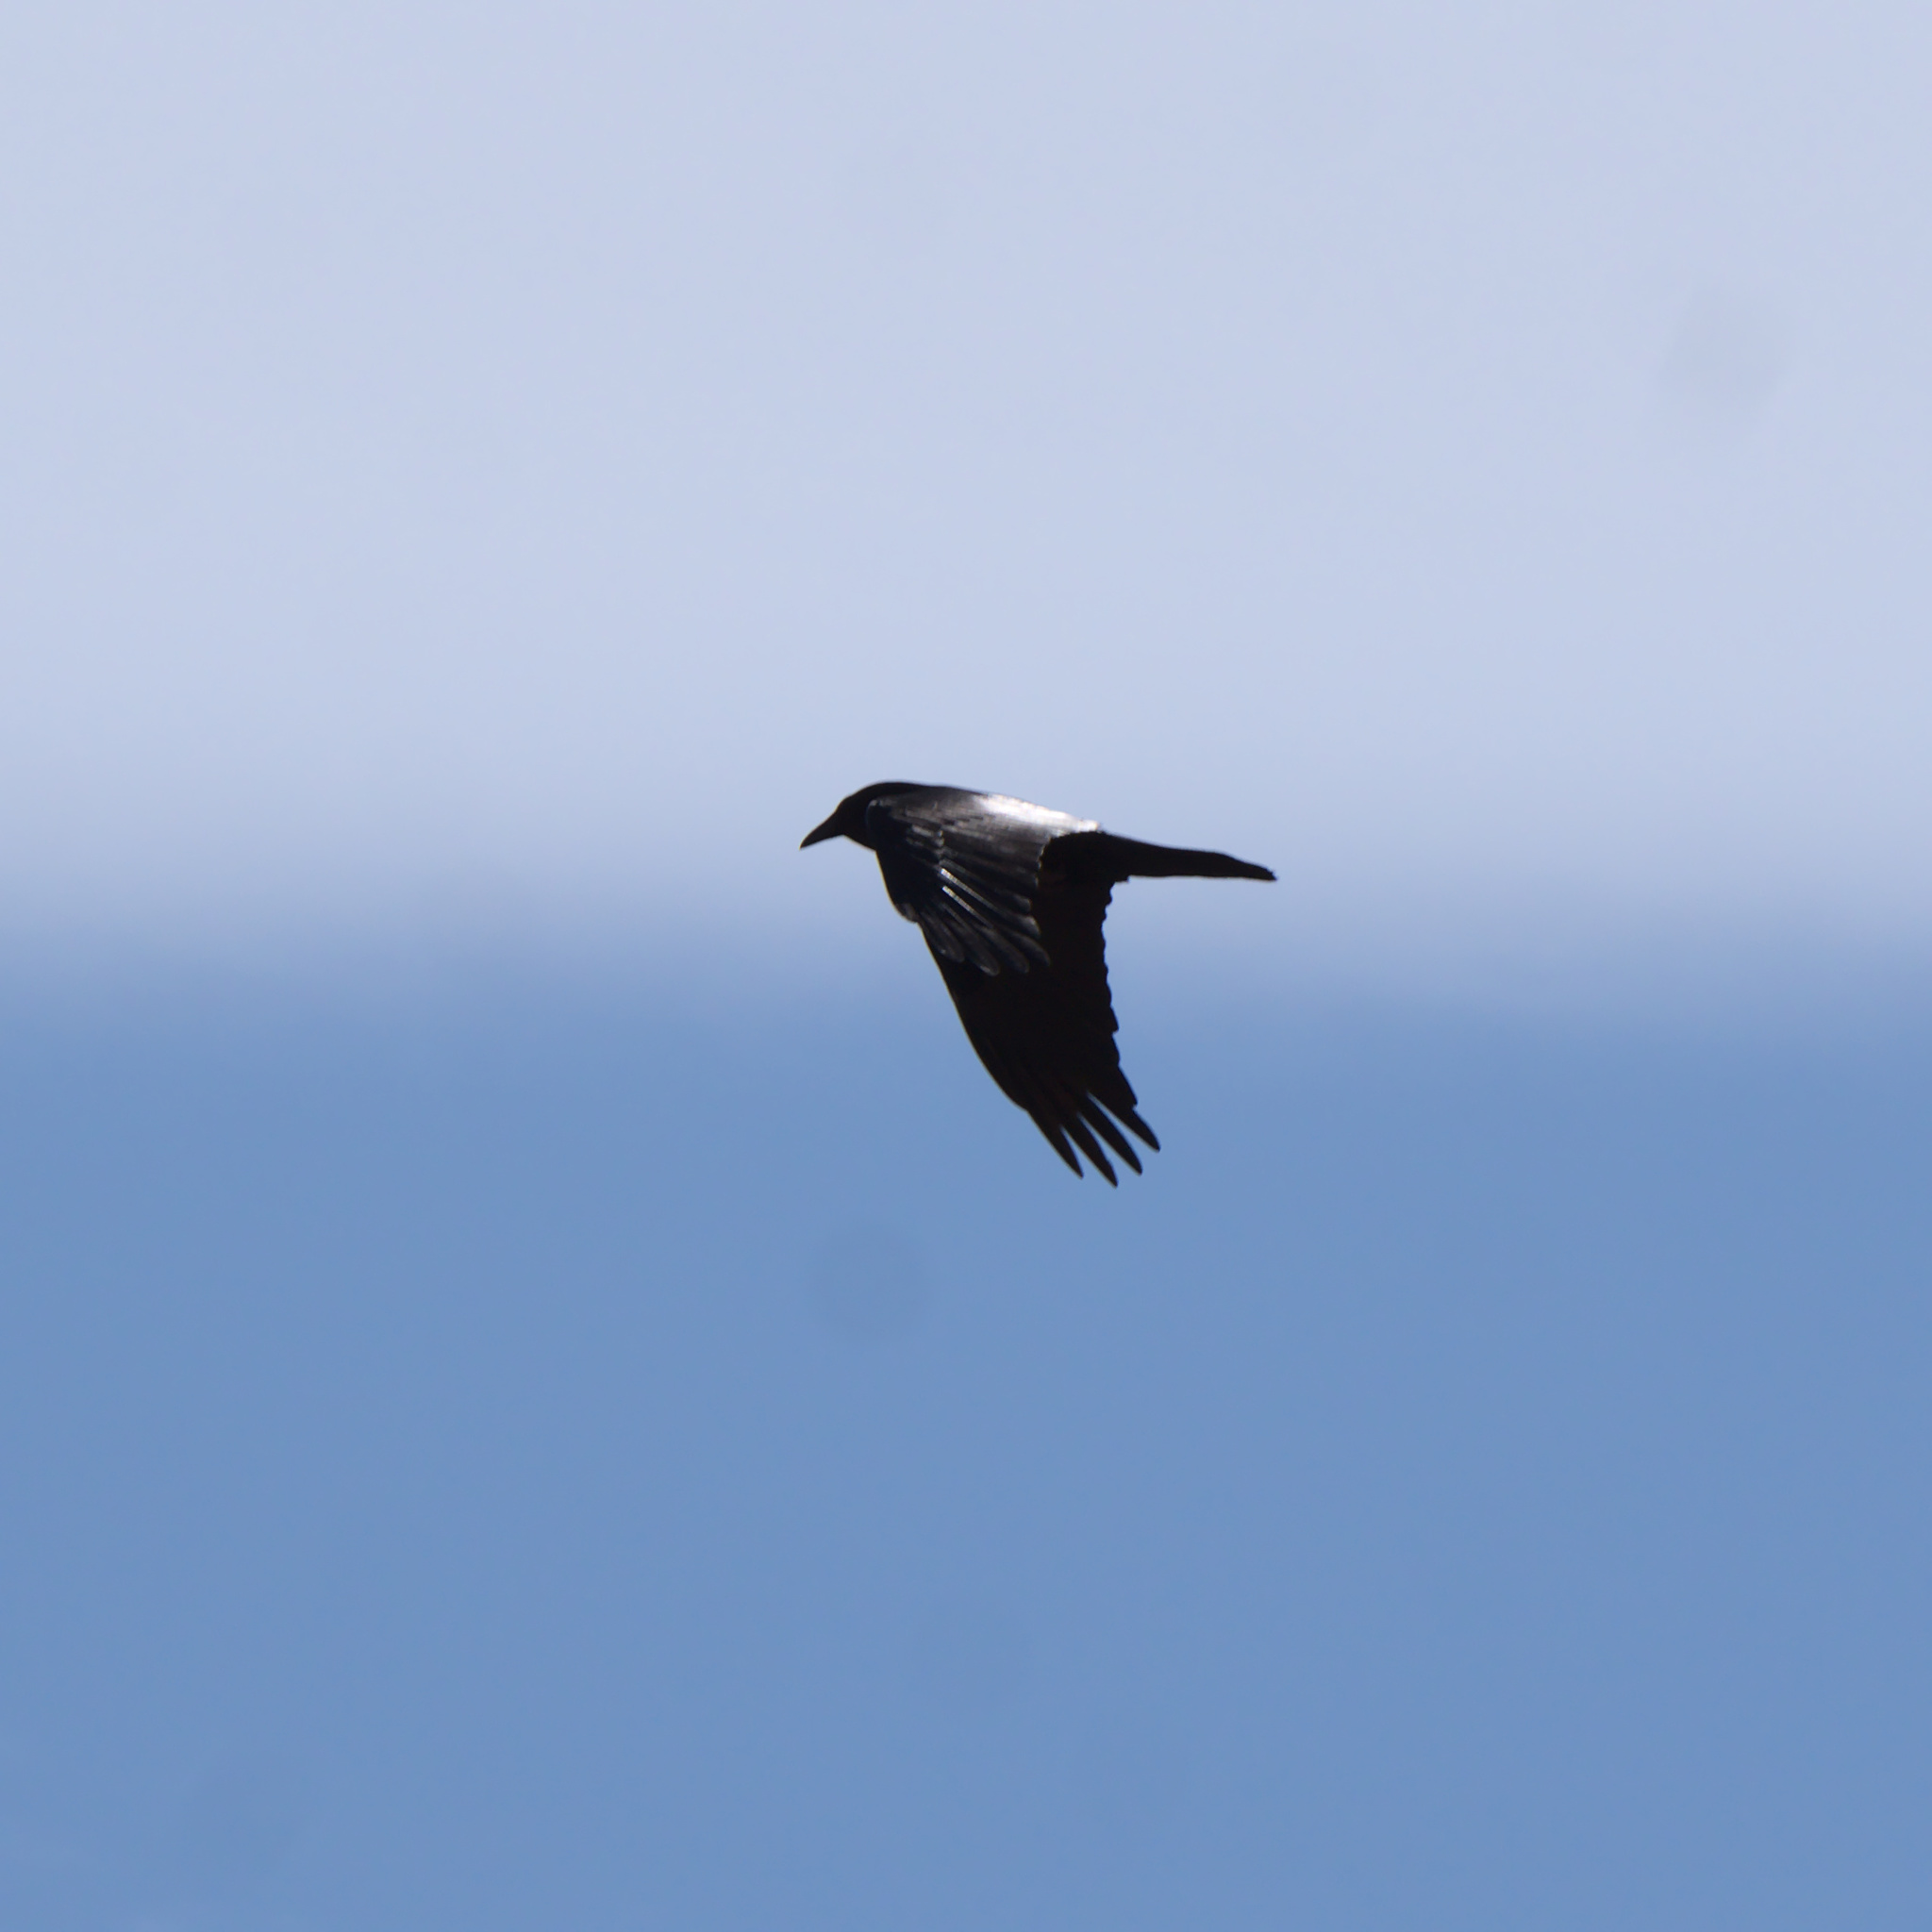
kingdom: Animalia
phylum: Chordata
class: Aves
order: Passeriformes
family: Corvidae
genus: Corvus
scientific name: Corvus brachyrhynchos
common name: American crow
